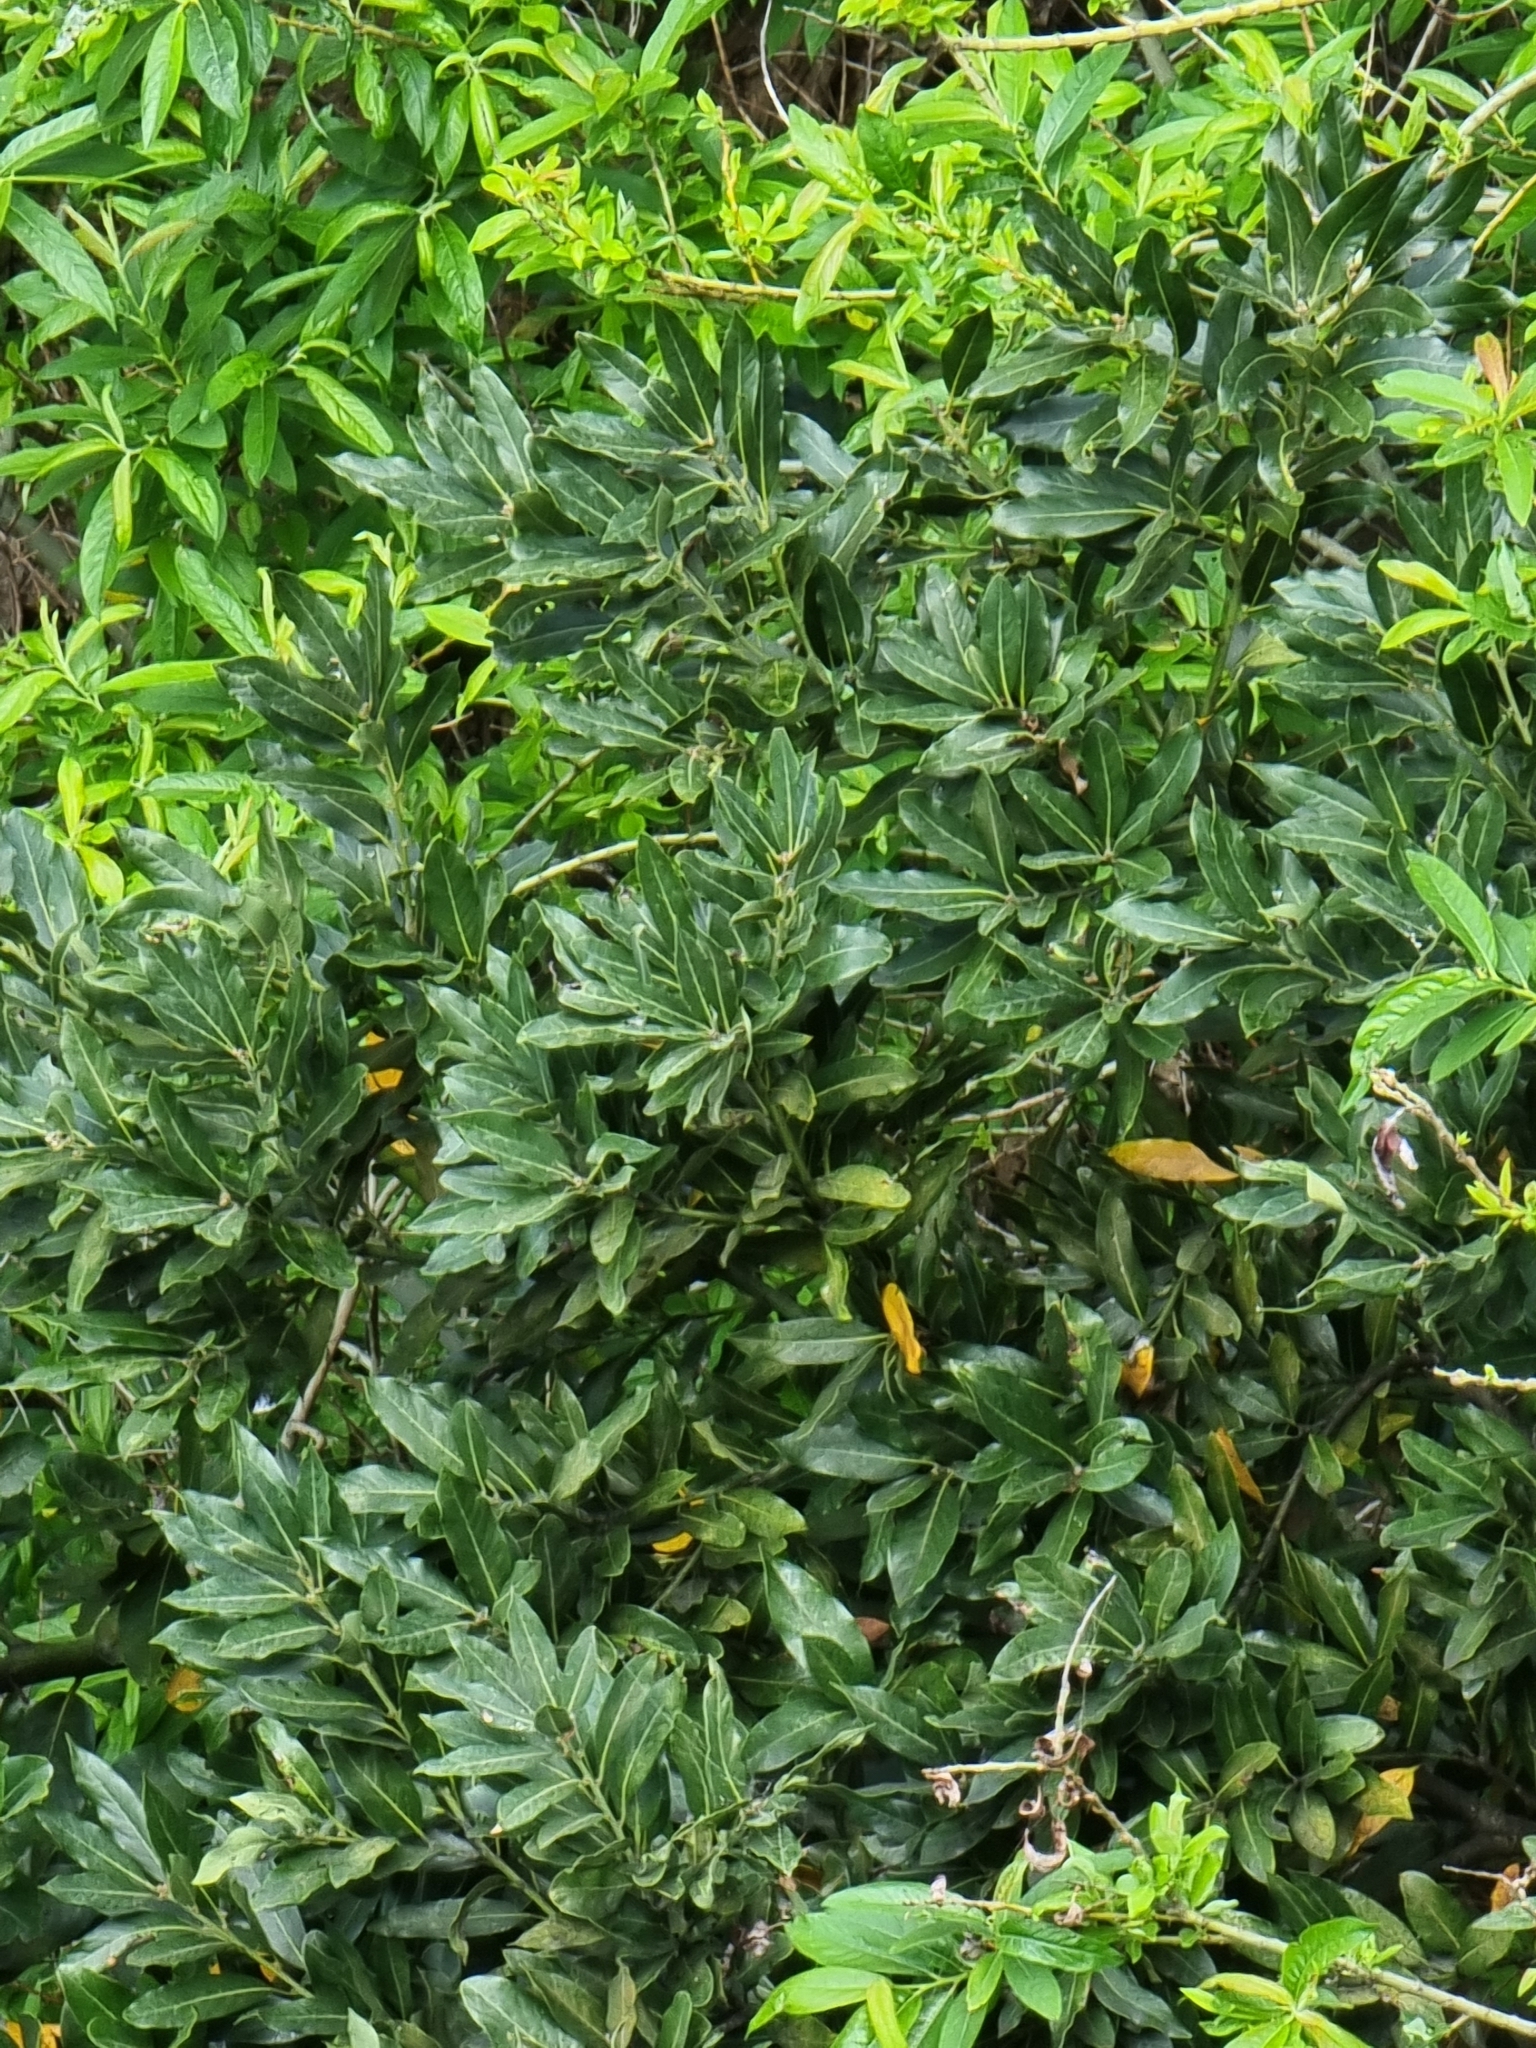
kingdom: Plantae
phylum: Tracheophyta
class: Magnoliopsida
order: Laurales
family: Lauraceae
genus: Laurus
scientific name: Laurus novocanariensis
